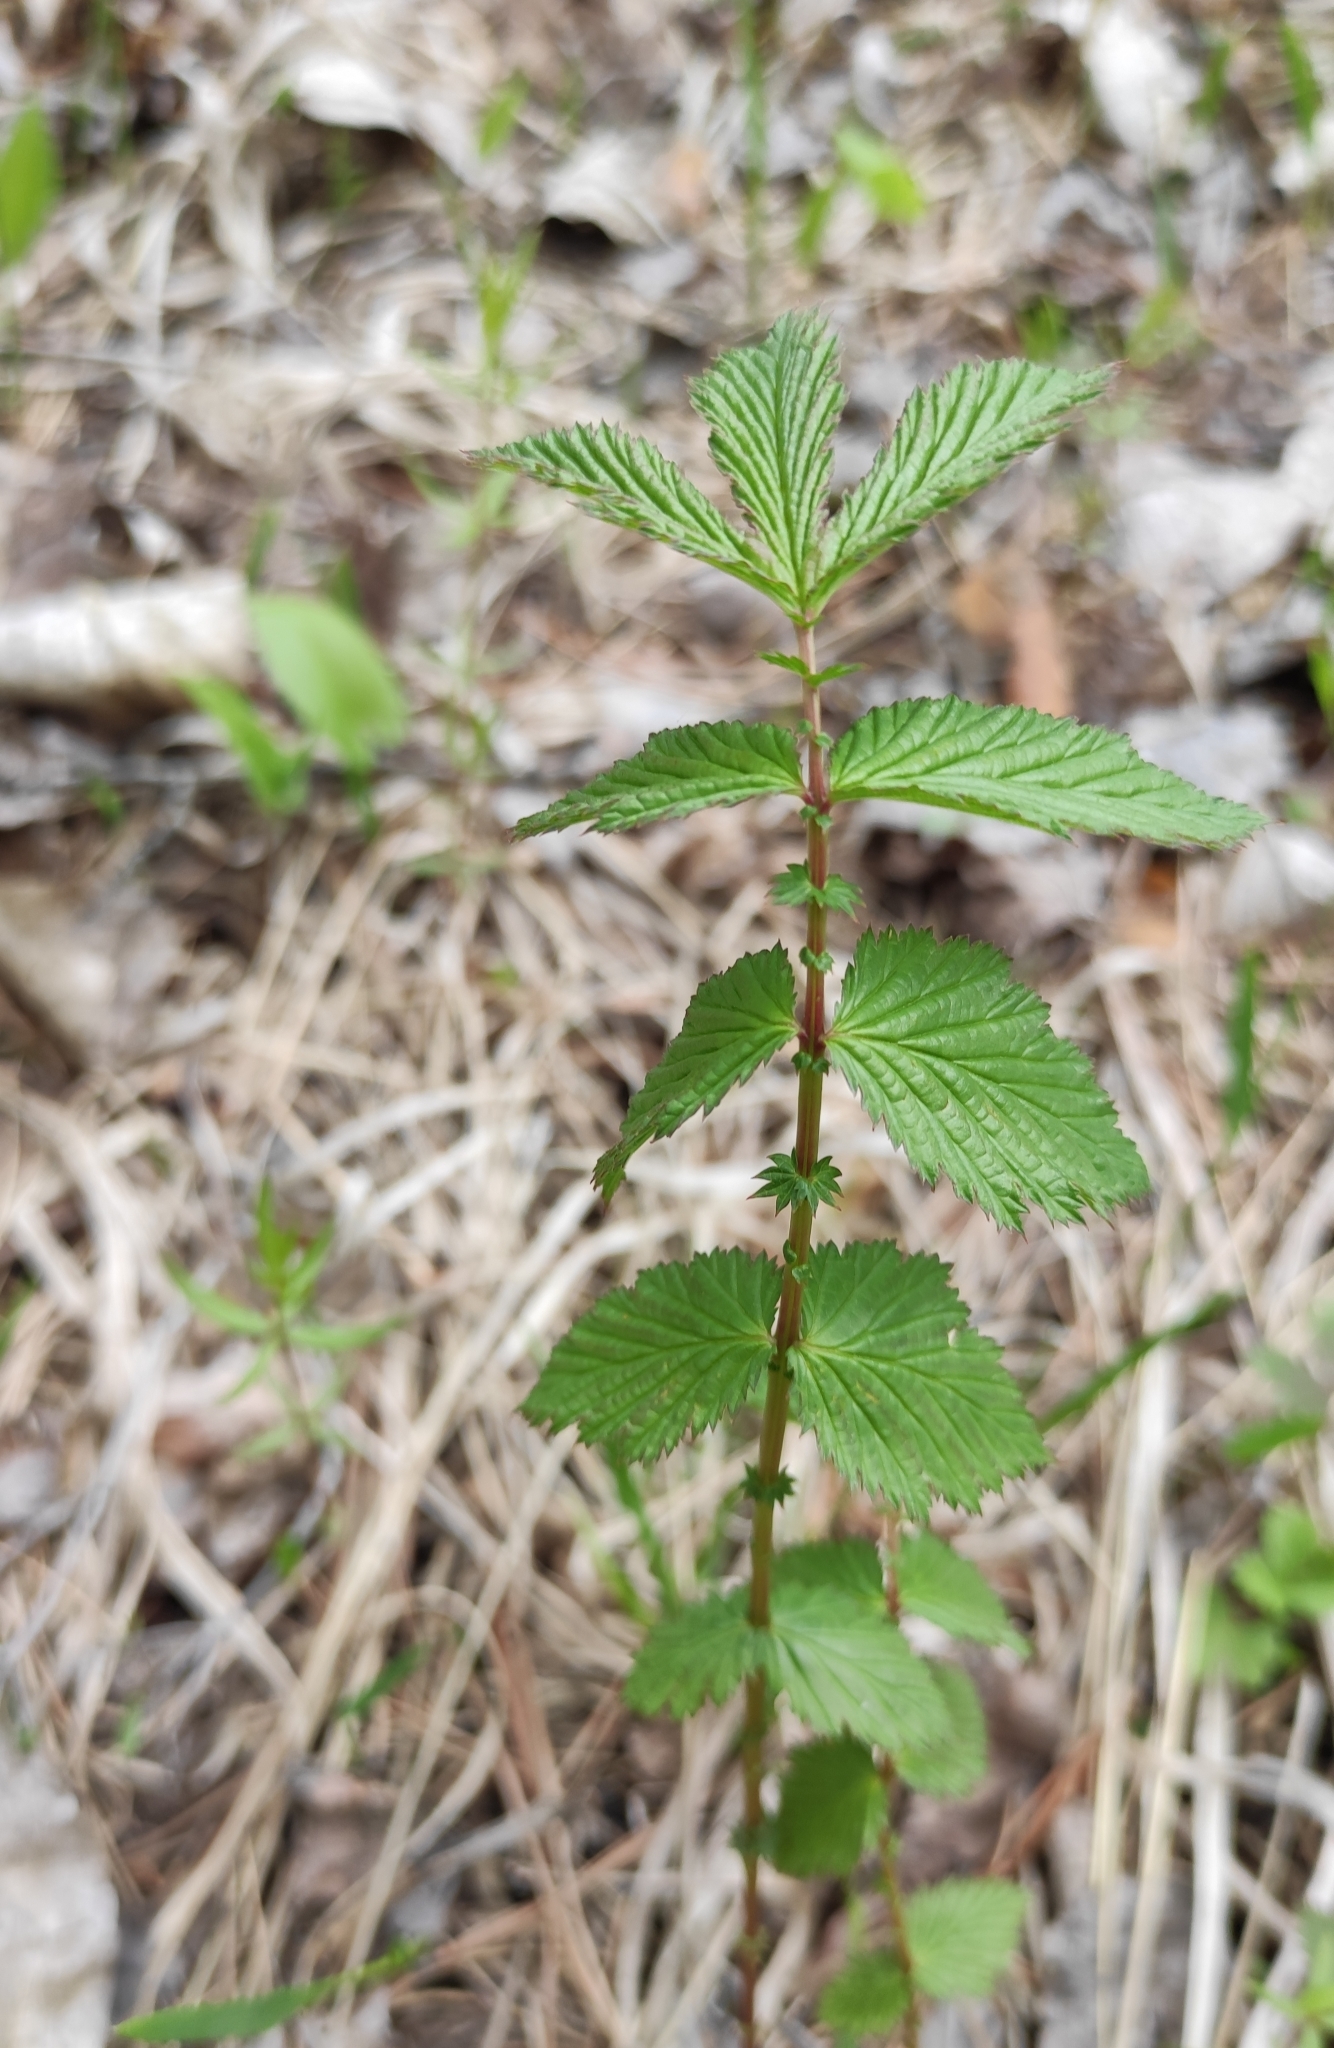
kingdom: Plantae
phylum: Tracheophyta
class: Magnoliopsida
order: Rosales
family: Rosaceae
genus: Filipendula
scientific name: Filipendula ulmaria
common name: Meadowsweet
